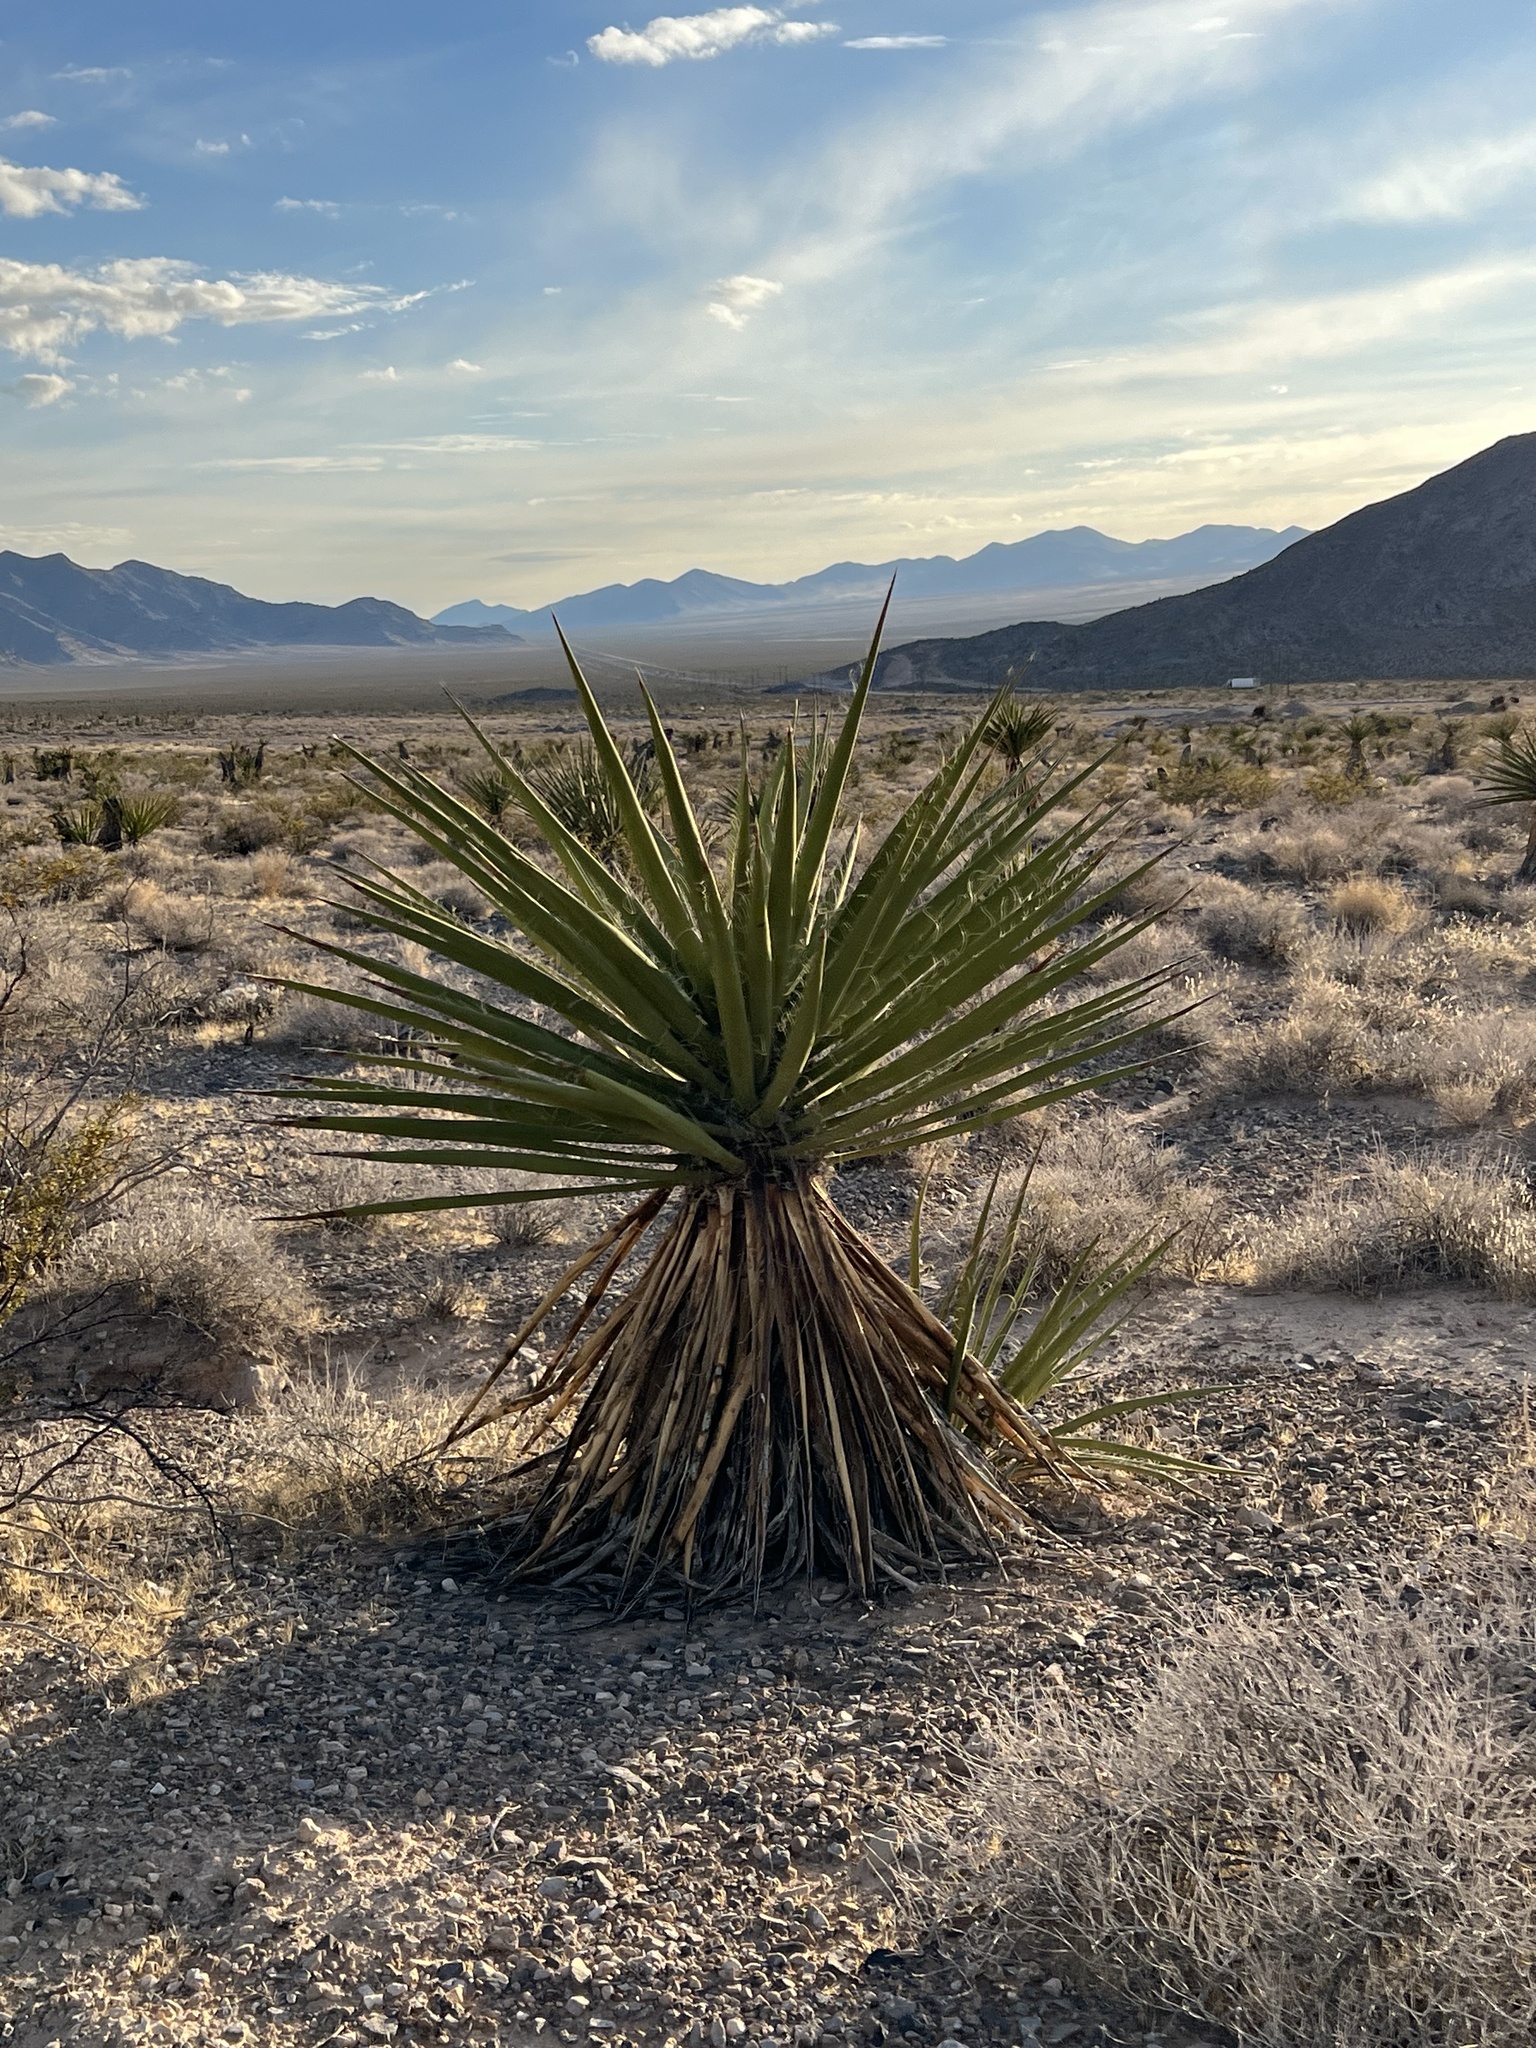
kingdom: Plantae
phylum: Tracheophyta
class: Liliopsida
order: Asparagales
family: Asparagaceae
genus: Yucca
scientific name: Yucca schidigera
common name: Mojave yucca
